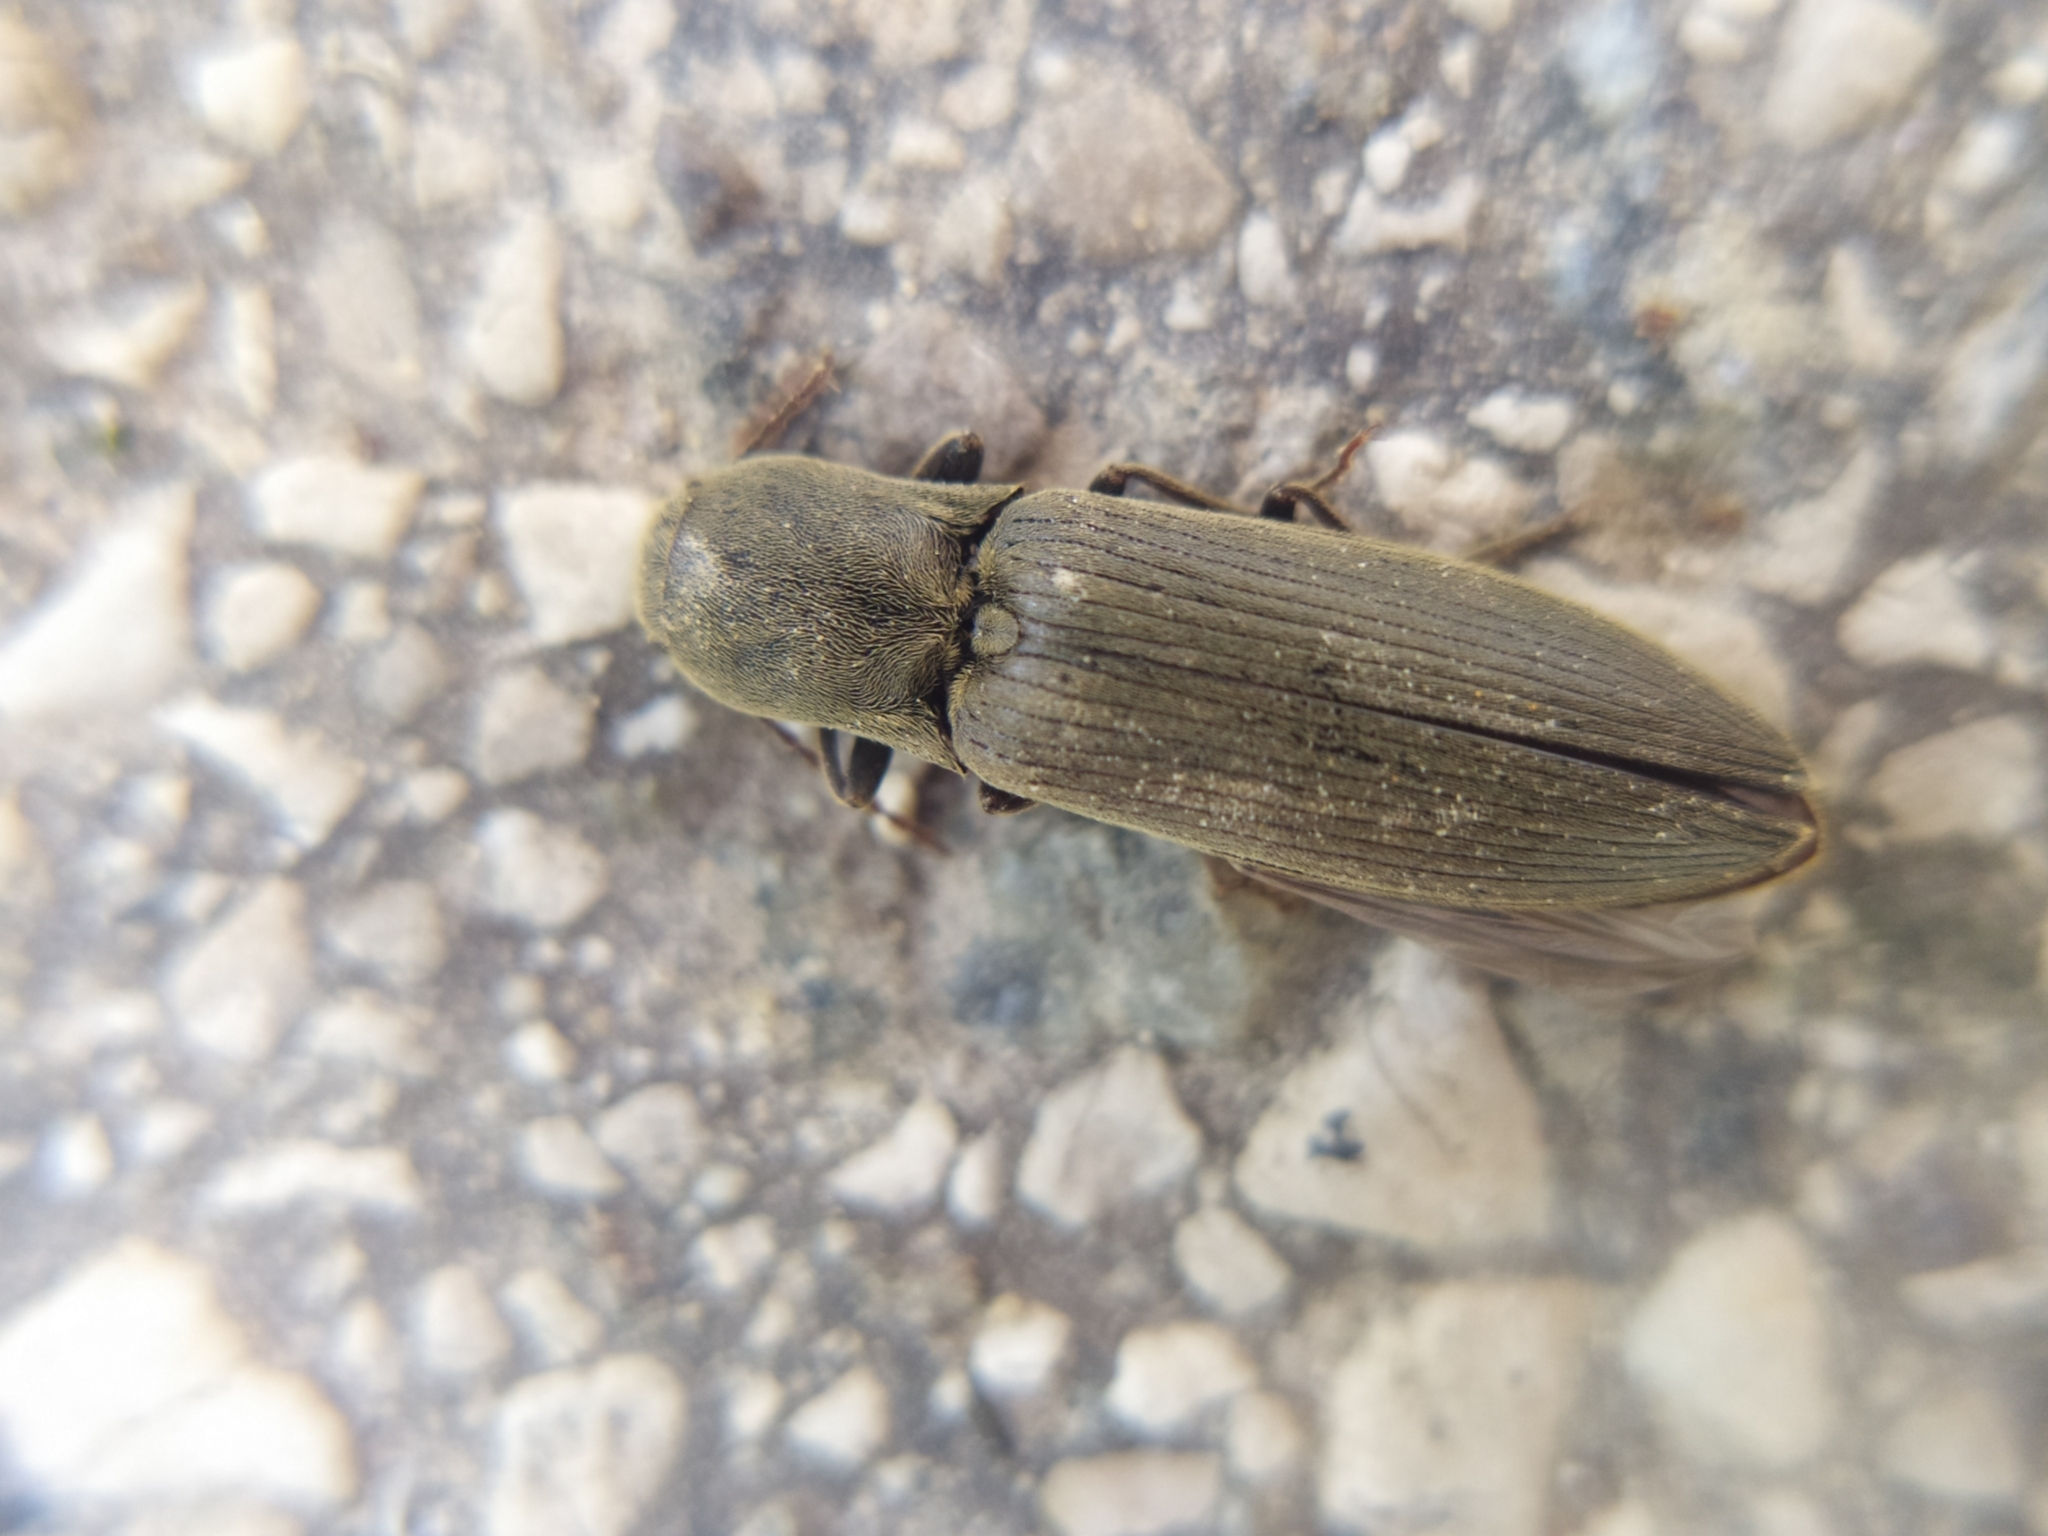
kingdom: Animalia
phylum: Arthropoda
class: Insecta
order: Coleoptera
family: Elateridae
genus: Agriotes
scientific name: Agriotes pilosellus
